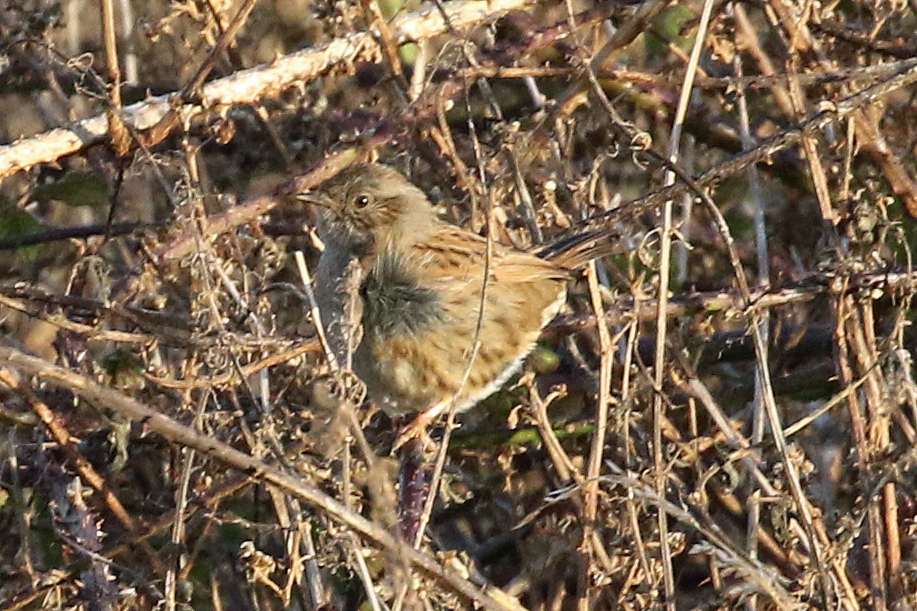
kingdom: Animalia
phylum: Chordata
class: Aves
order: Passeriformes
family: Prunellidae
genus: Prunella
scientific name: Prunella modularis
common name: Dunnock
